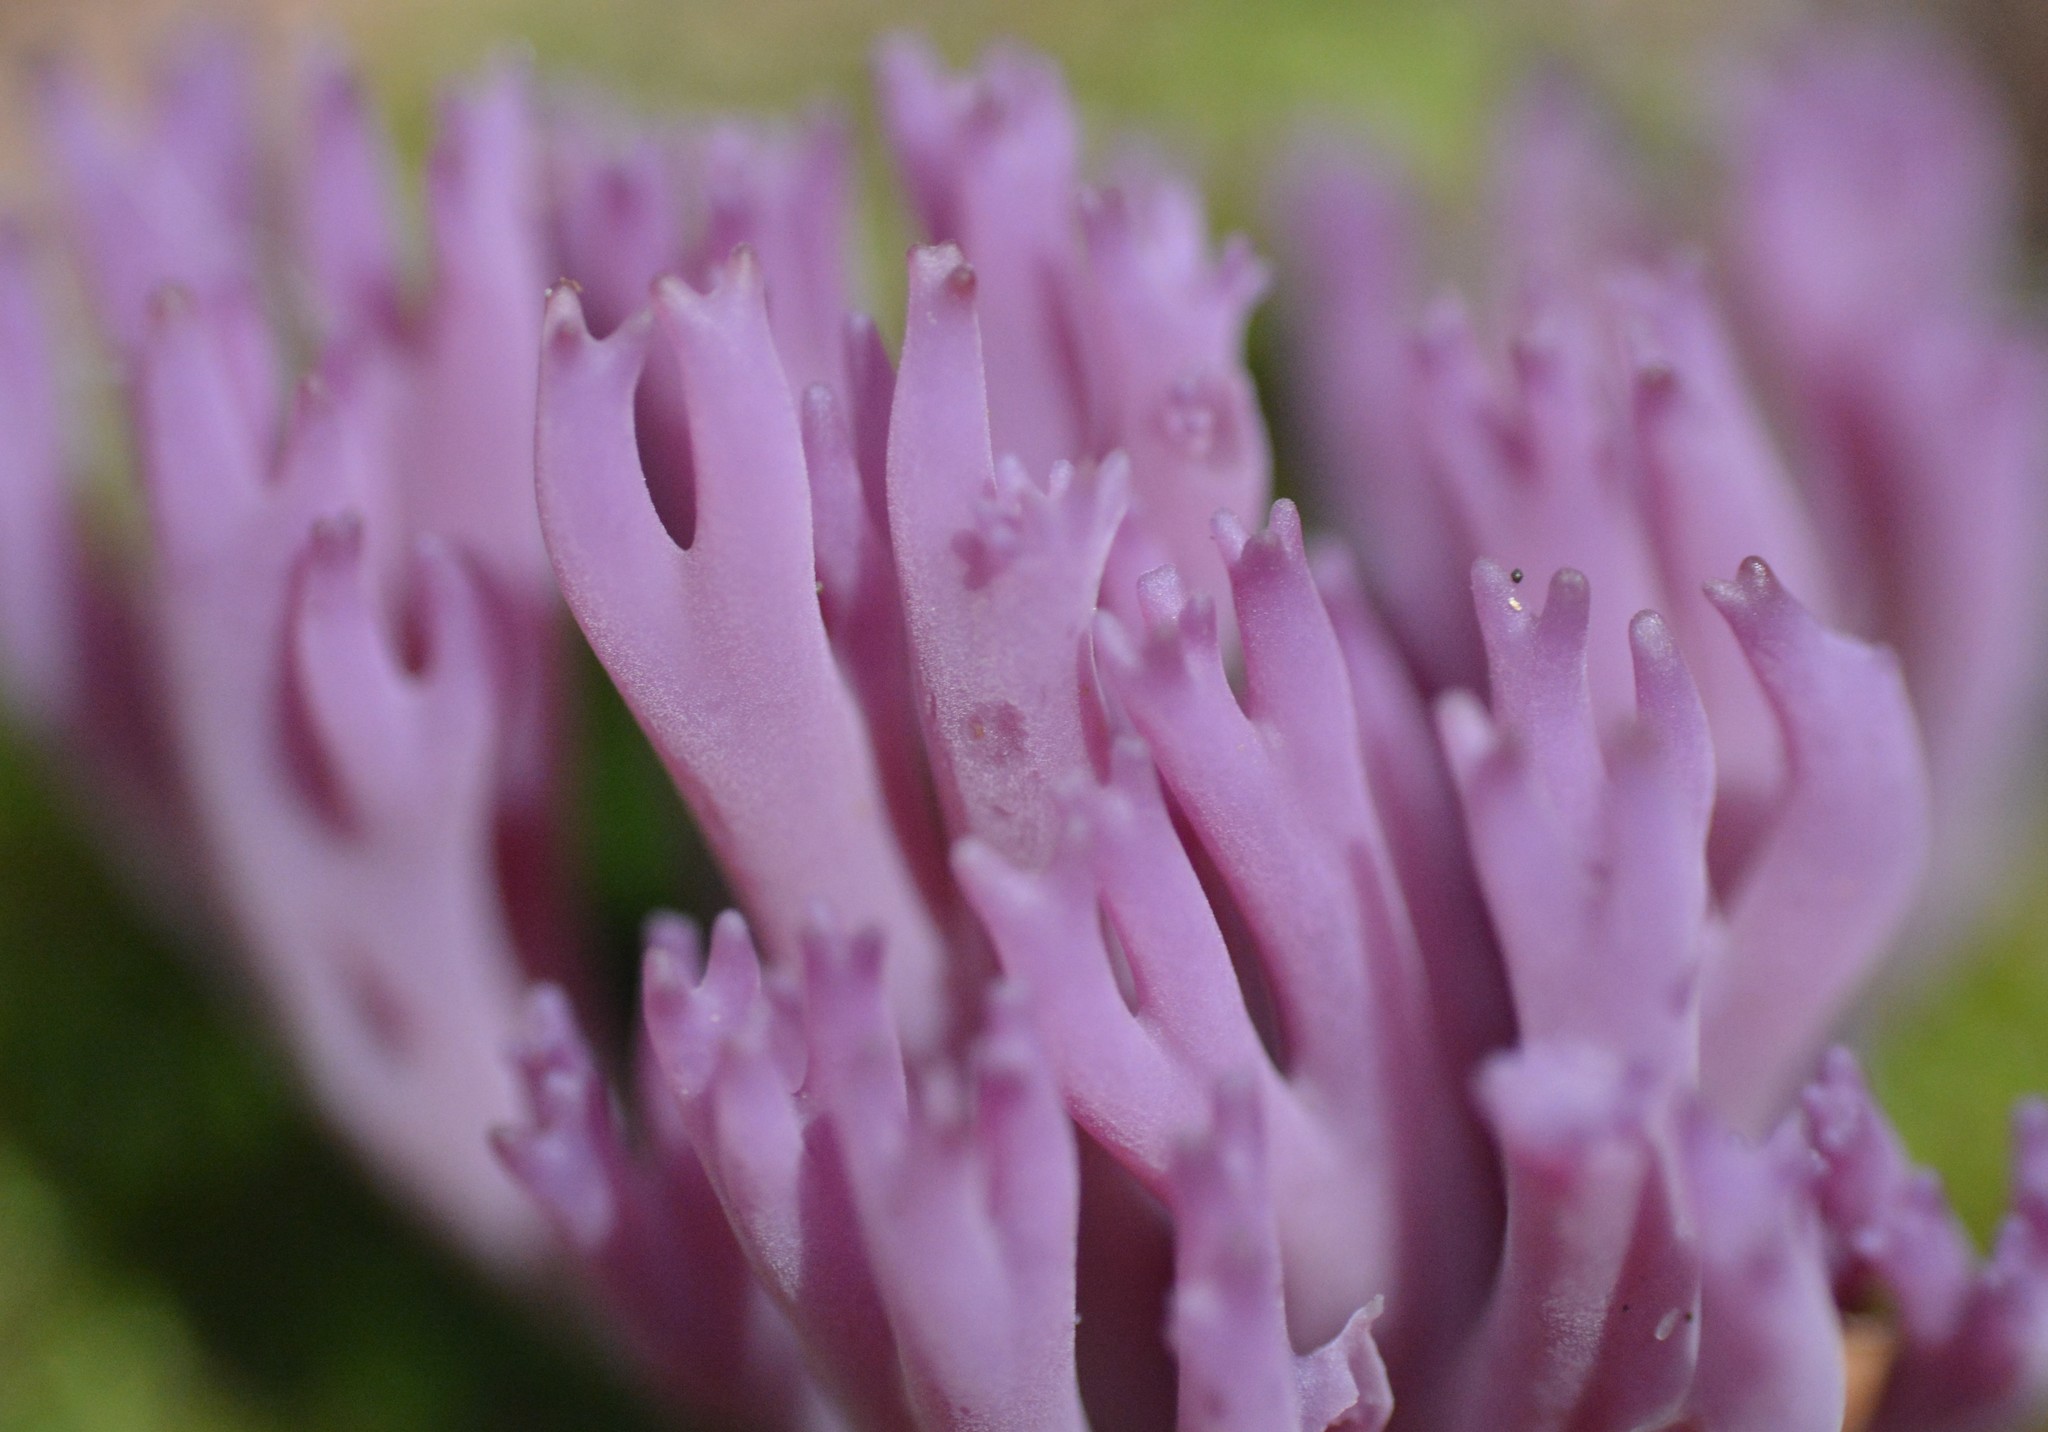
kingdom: Fungi
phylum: Basidiomycota
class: Agaricomycetes
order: Agaricales
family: Clavariaceae
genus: Clavaria
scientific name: Clavaria zollingeri
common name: Violet coral
